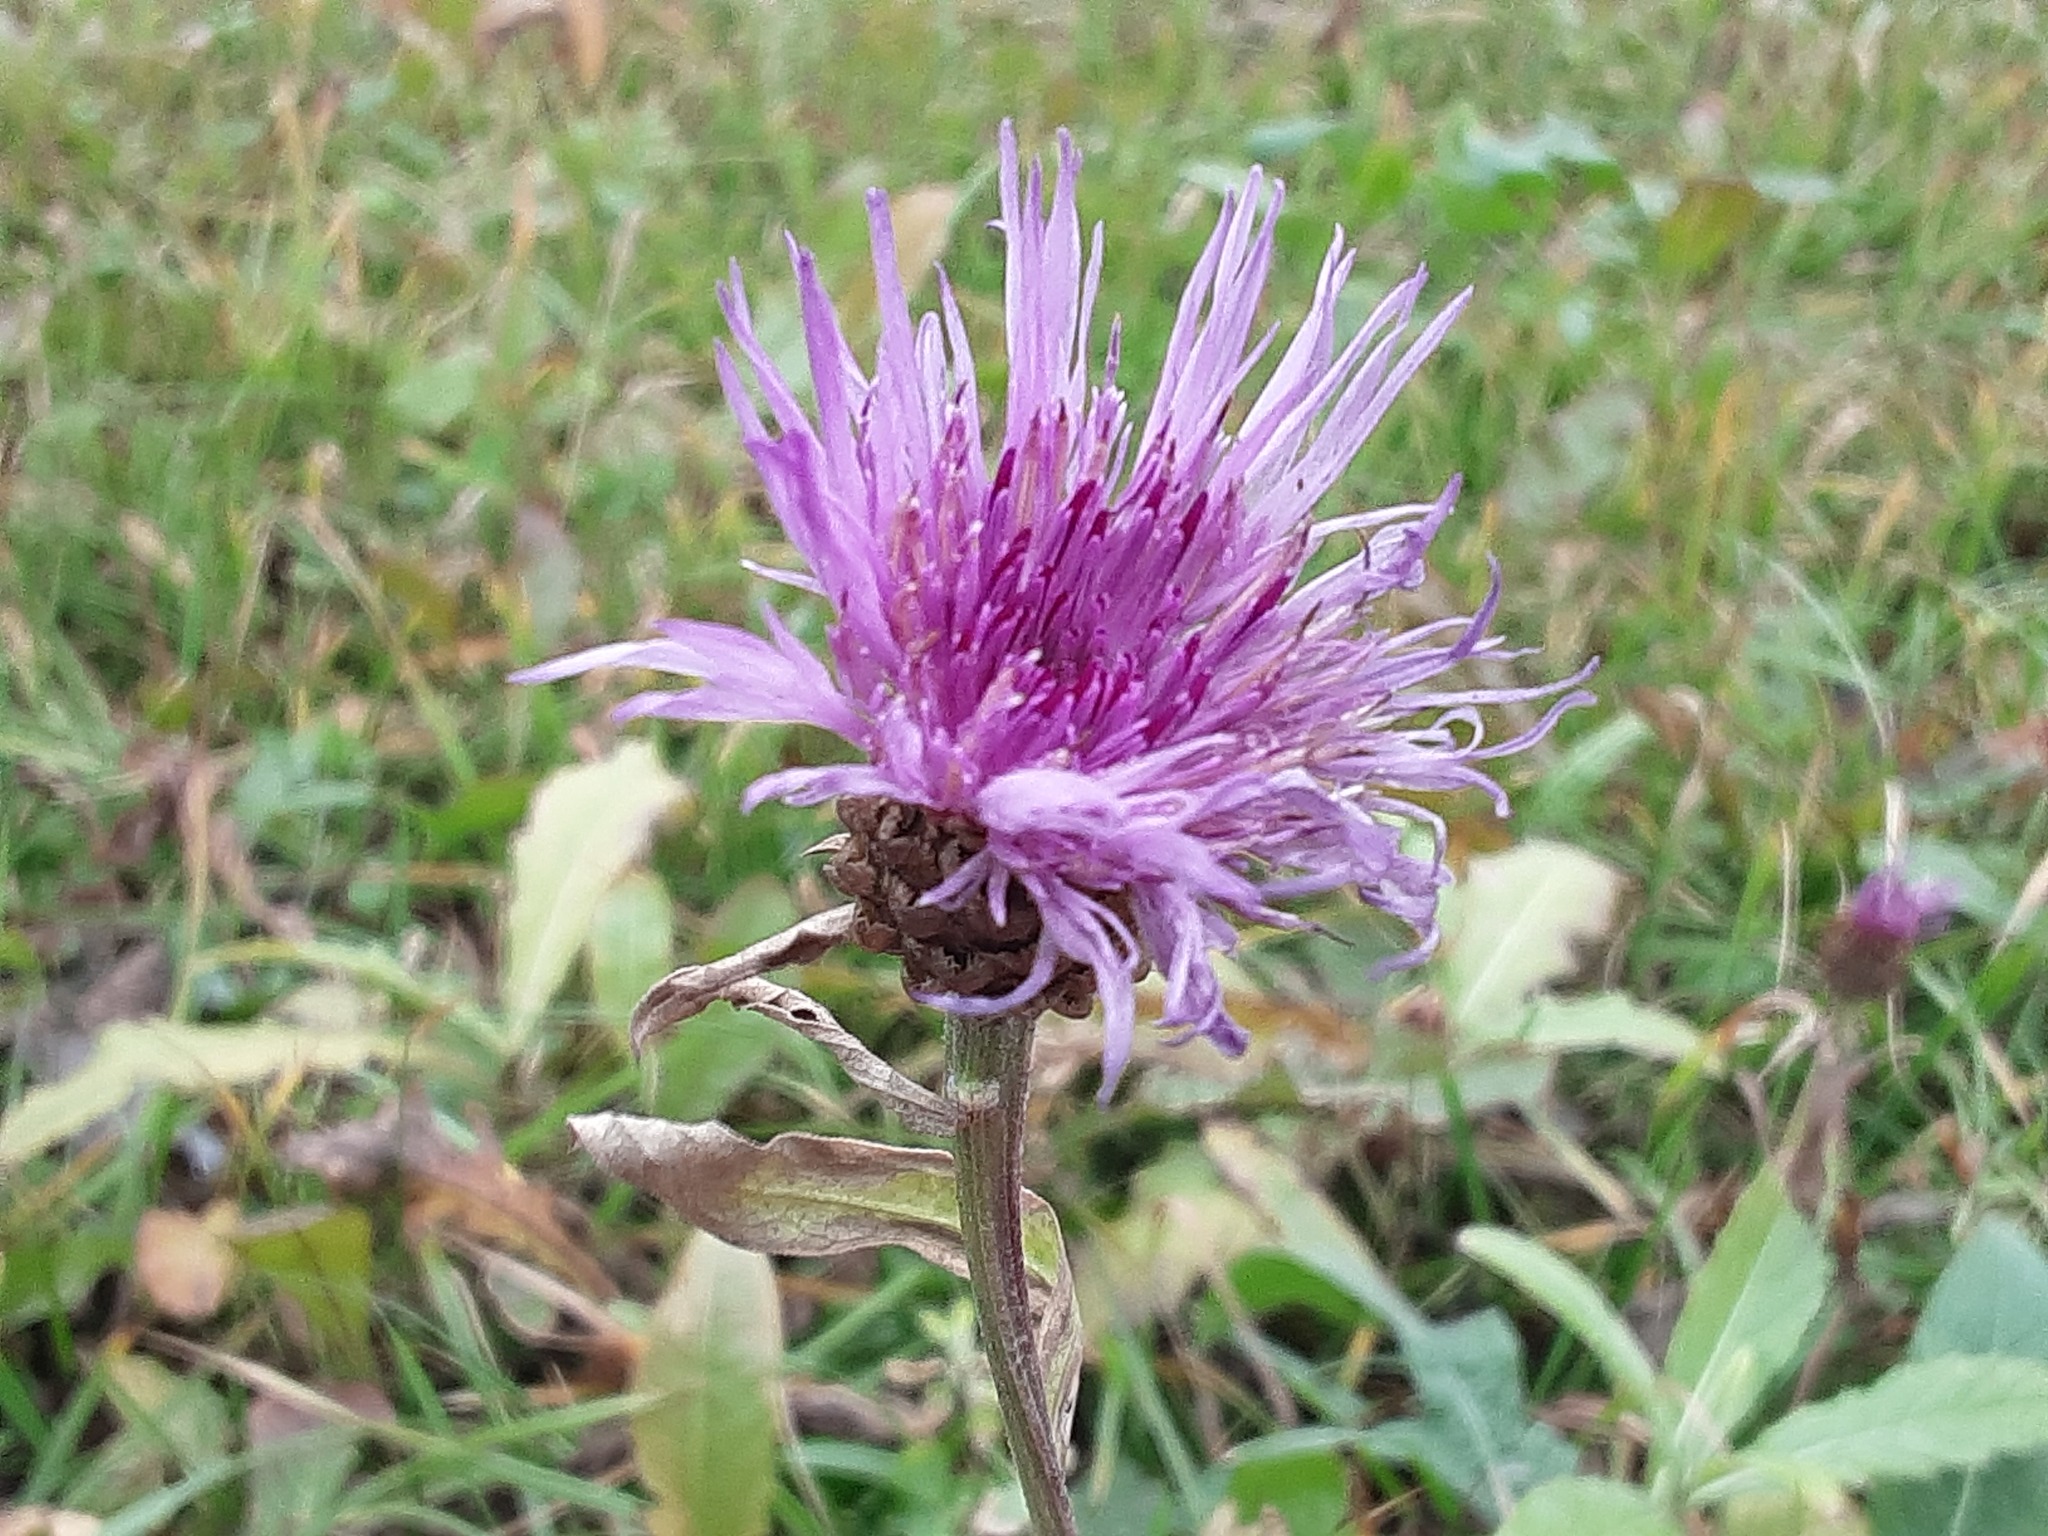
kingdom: Plantae
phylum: Tracheophyta
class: Magnoliopsida
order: Asterales
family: Asteraceae
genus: Centaurea
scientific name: Centaurea jacea
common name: Brown knapweed
